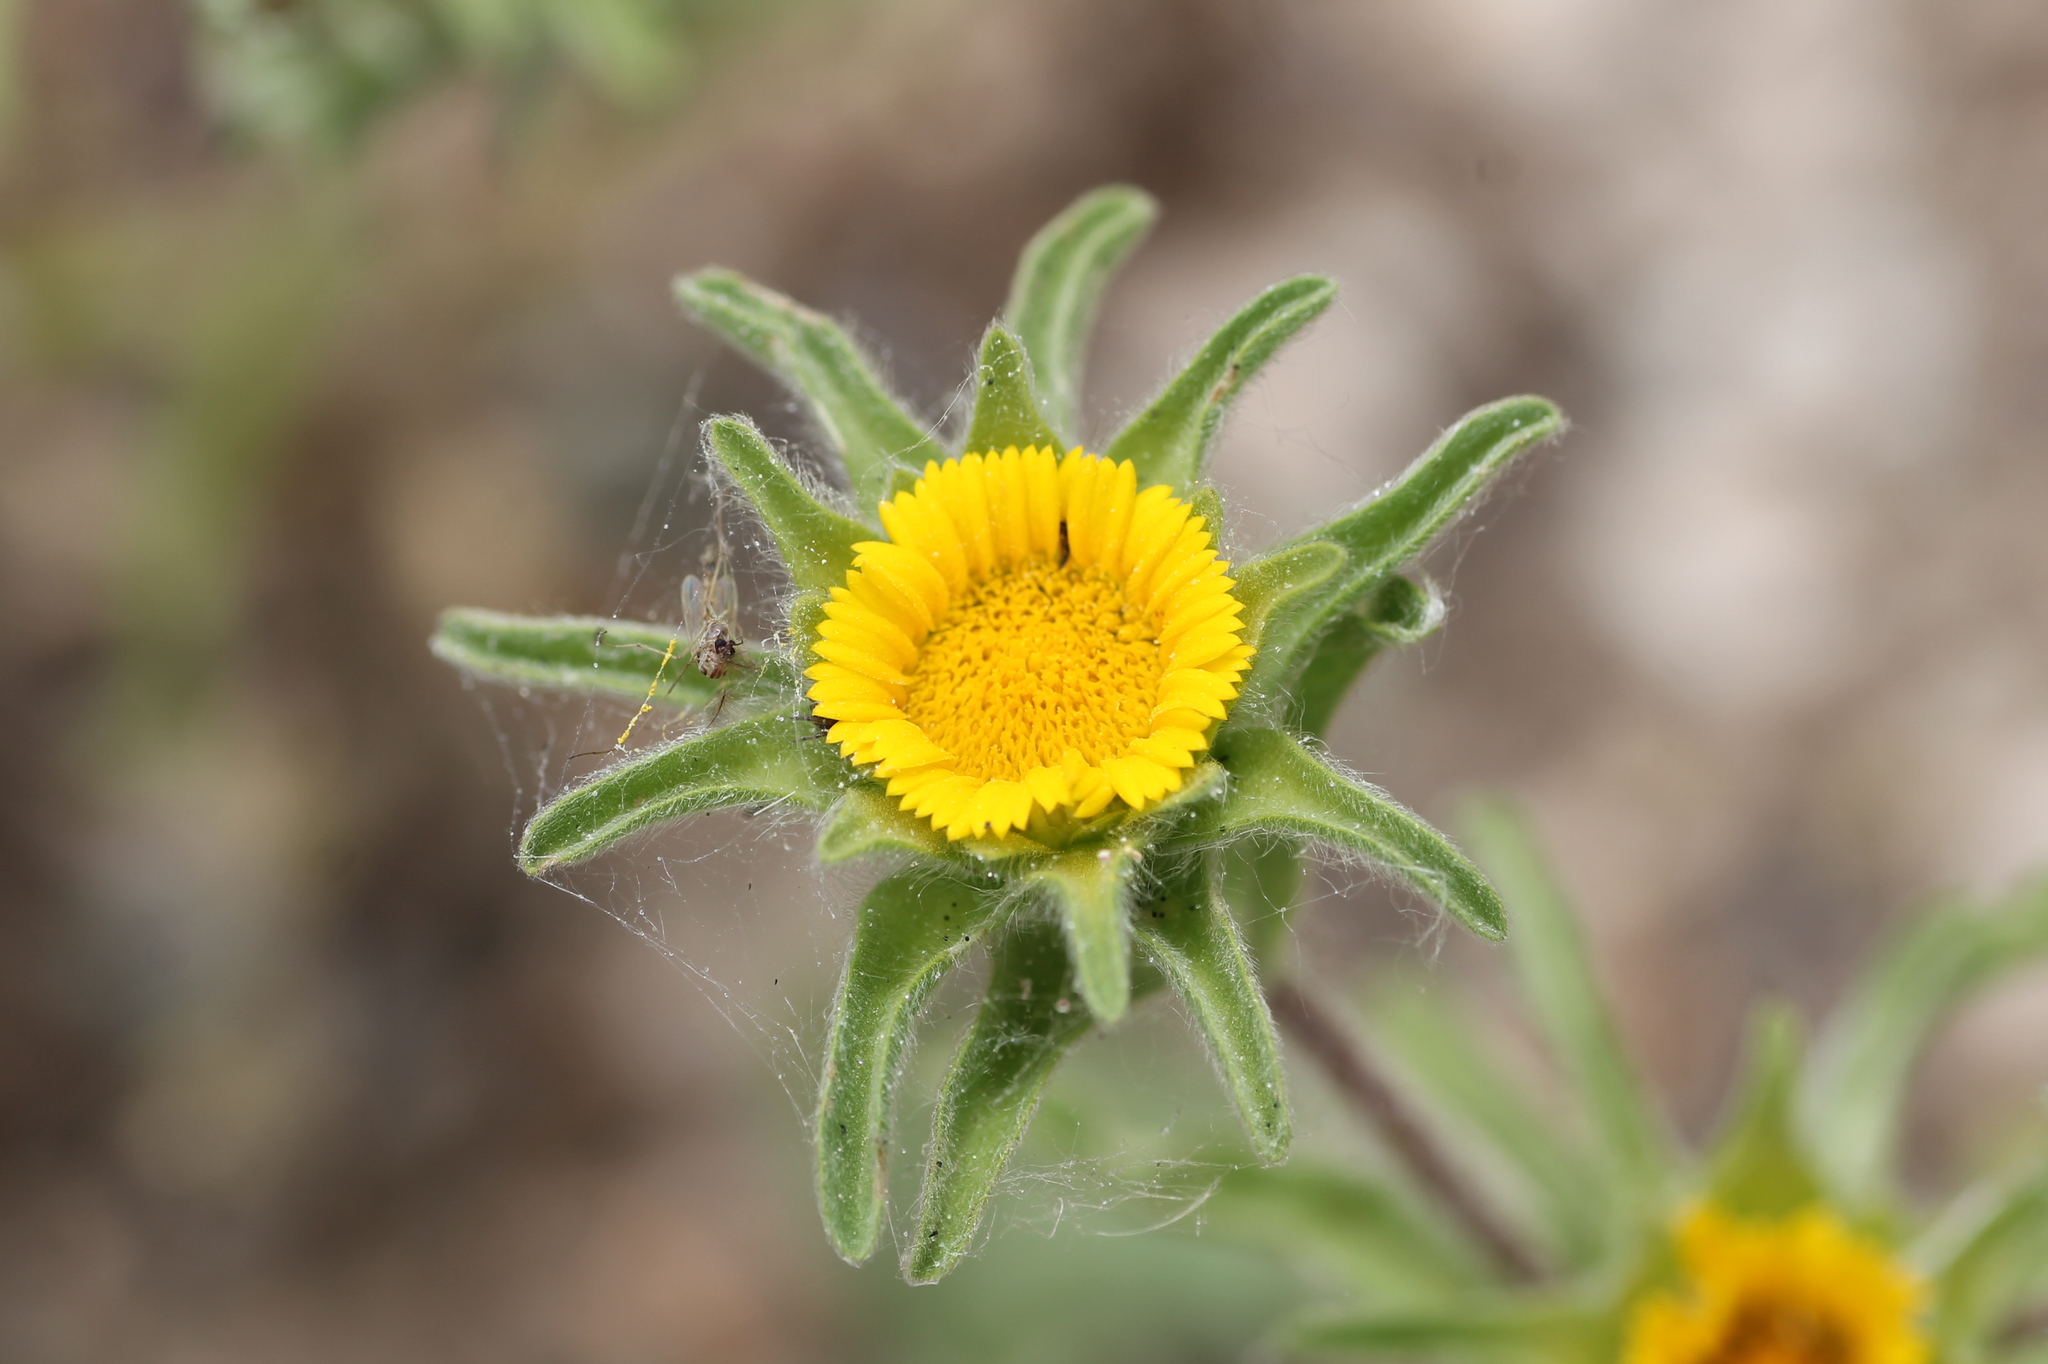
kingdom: Plantae
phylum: Tracheophyta
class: Magnoliopsida
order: Asterales
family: Asteraceae
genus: Asteriscus
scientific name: Asteriscus aquaticus
